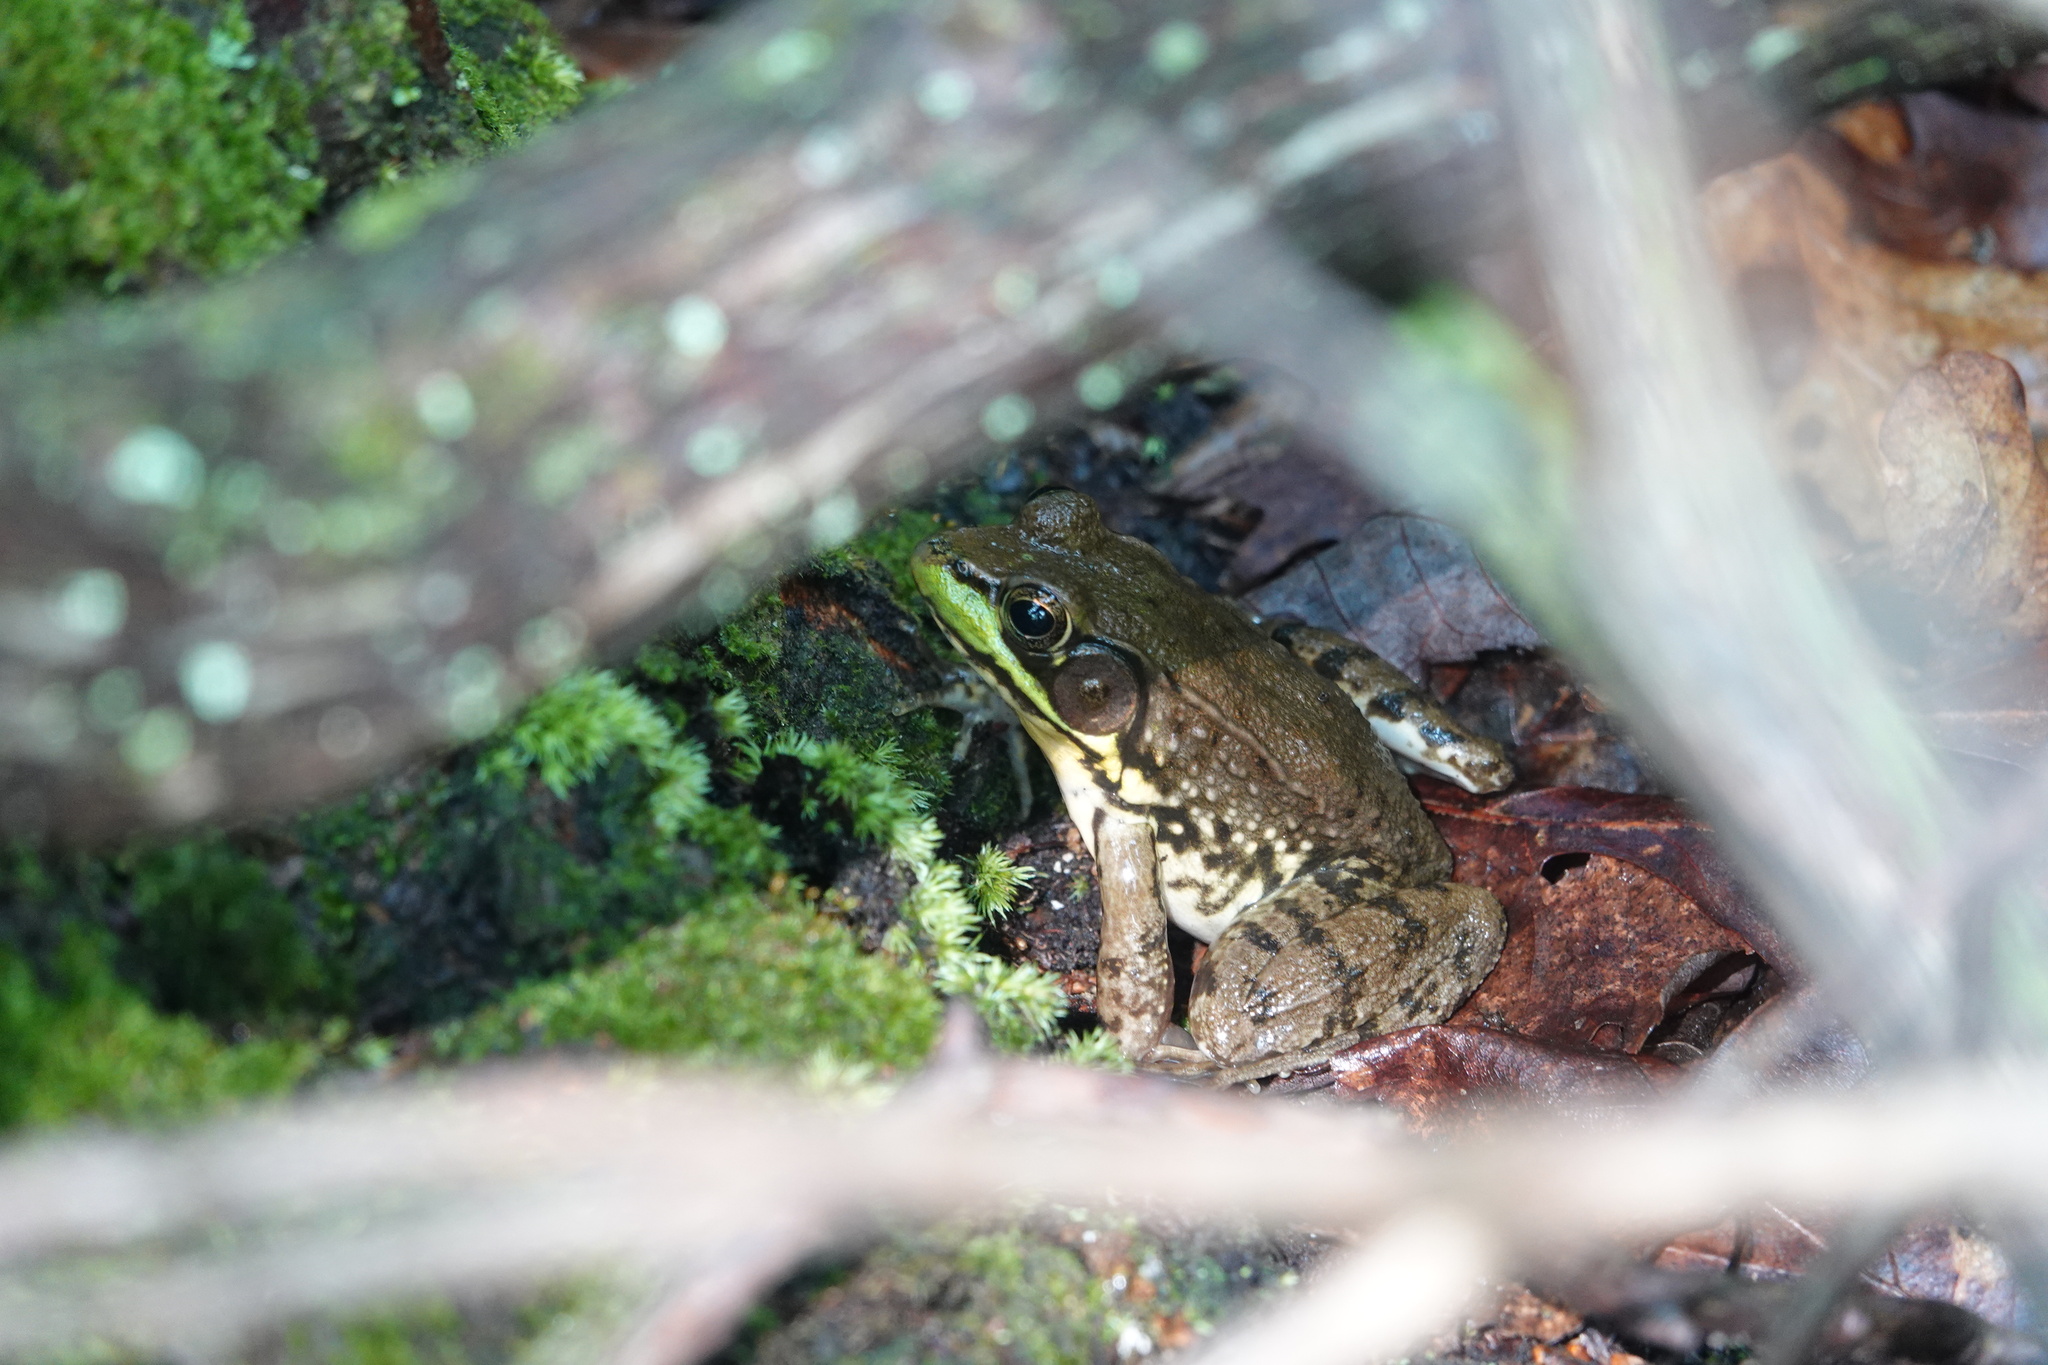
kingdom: Animalia
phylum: Chordata
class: Amphibia
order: Anura
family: Ranidae
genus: Lithobates
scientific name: Lithobates clamitans
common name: Green frog
